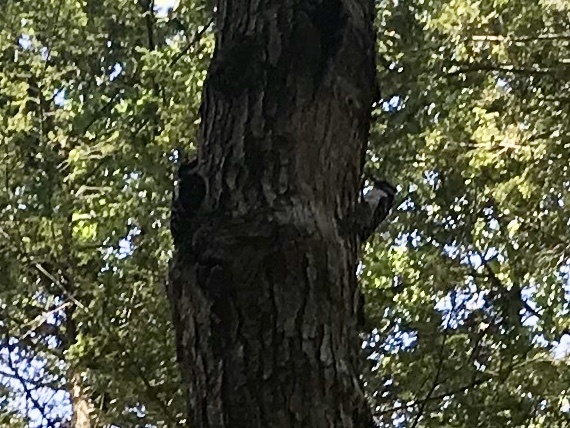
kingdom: Animalia
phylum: Chordata
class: Aves
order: Piciformes
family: Picidae
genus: Leuconotopicus
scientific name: Leuconotopicus villosus
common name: Hairy woodpecker
